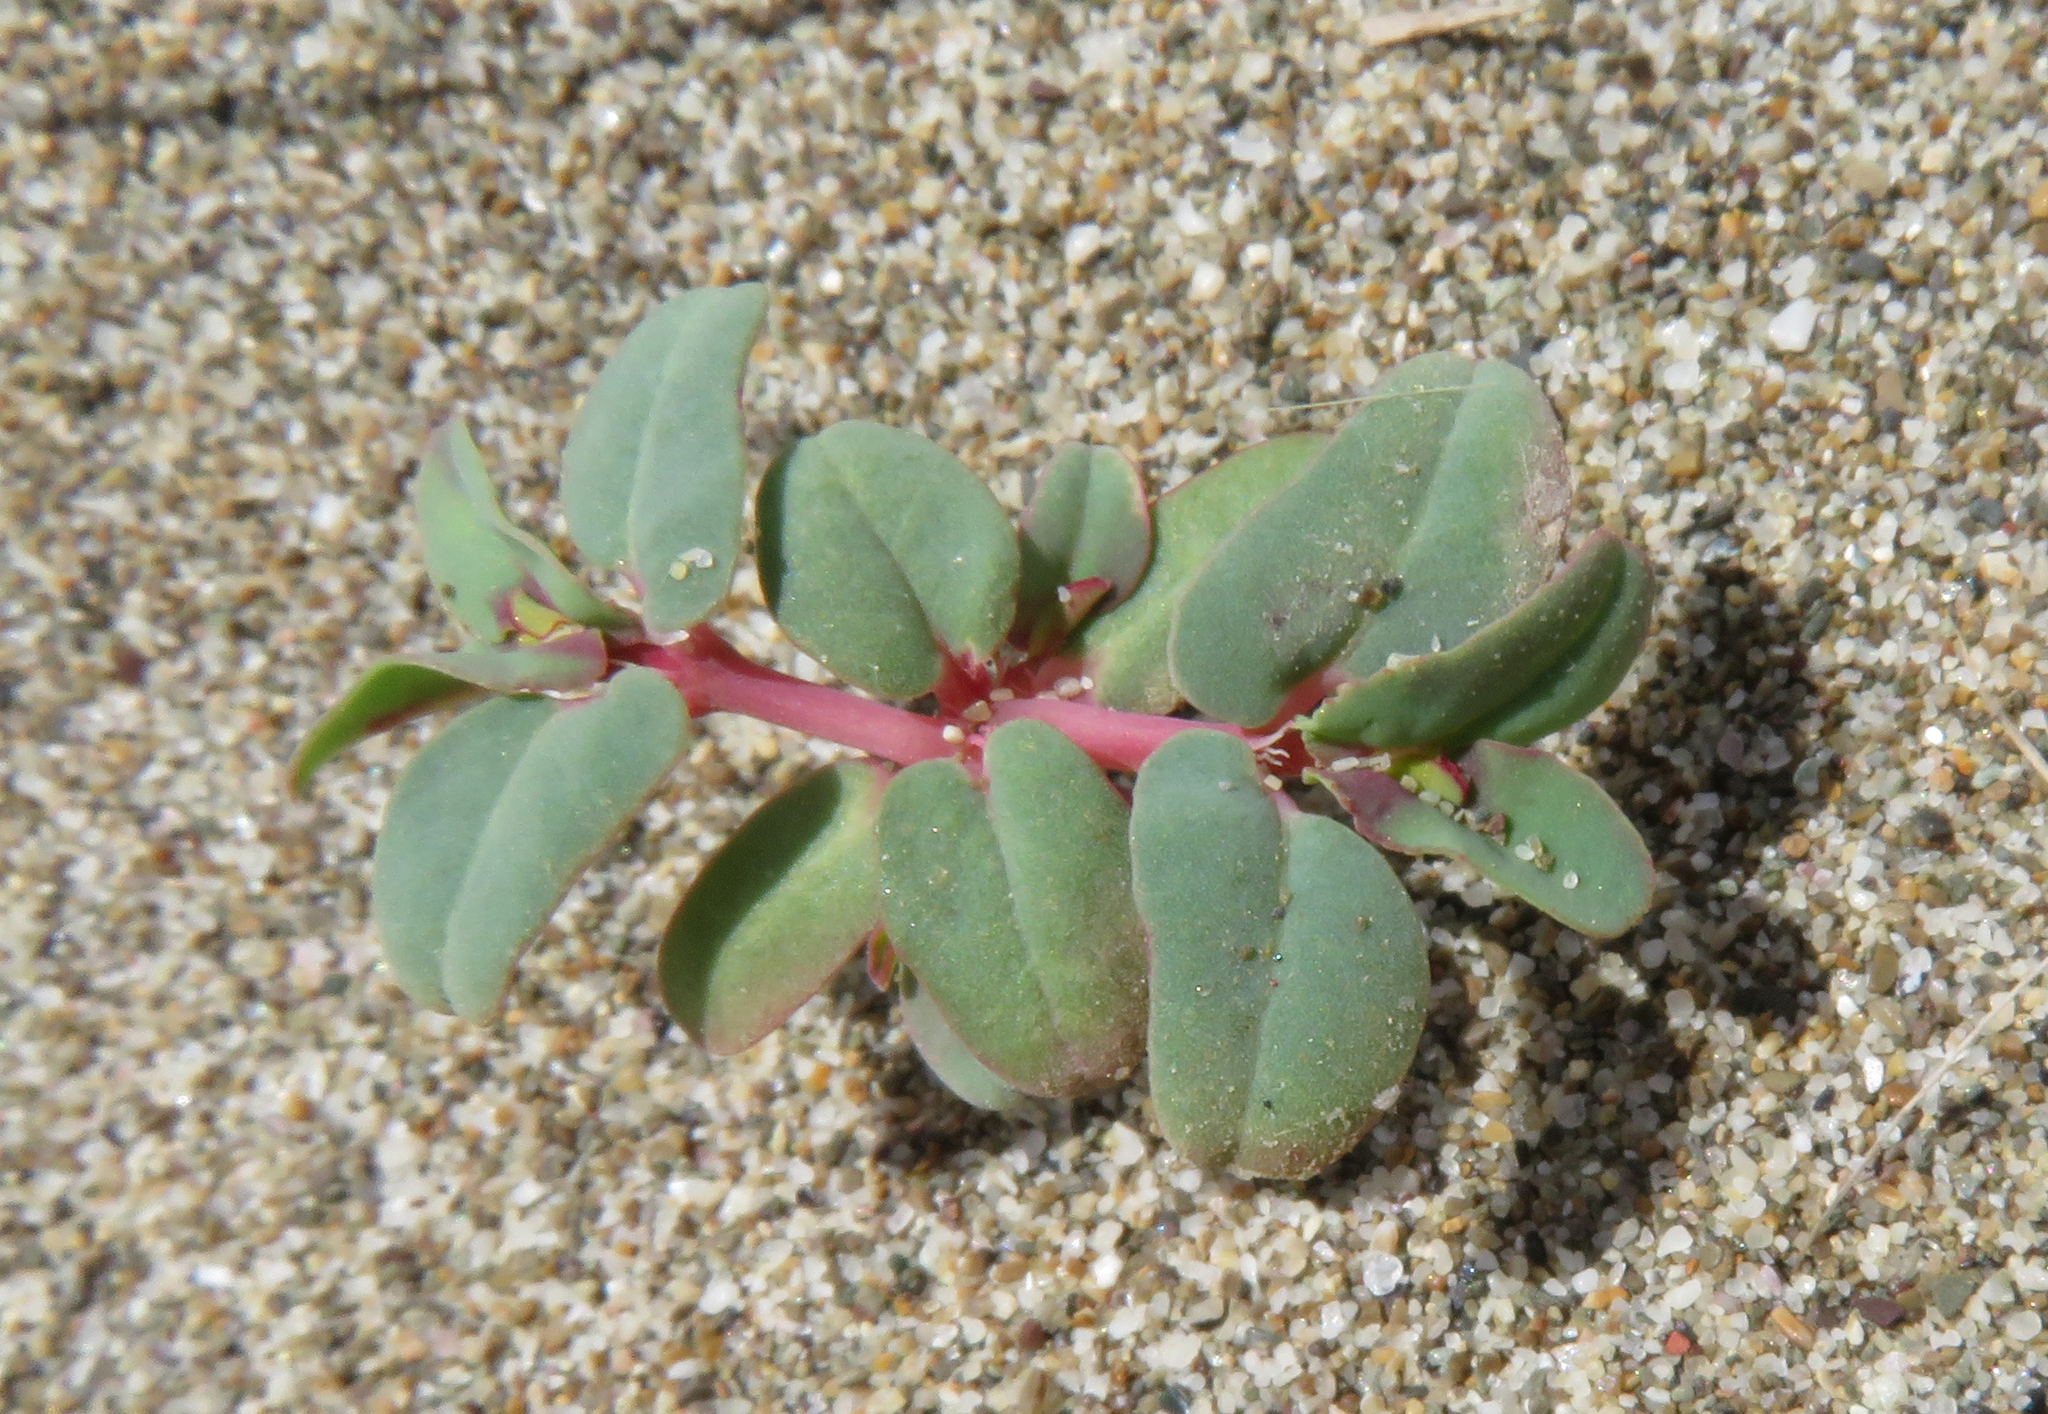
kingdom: Plantae
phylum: Tracheophyta
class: Magnoliopsida
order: Malpighiales
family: Euphorbiaceae
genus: Euphorbia
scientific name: Euphorbia peplis
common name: Purple spurge
